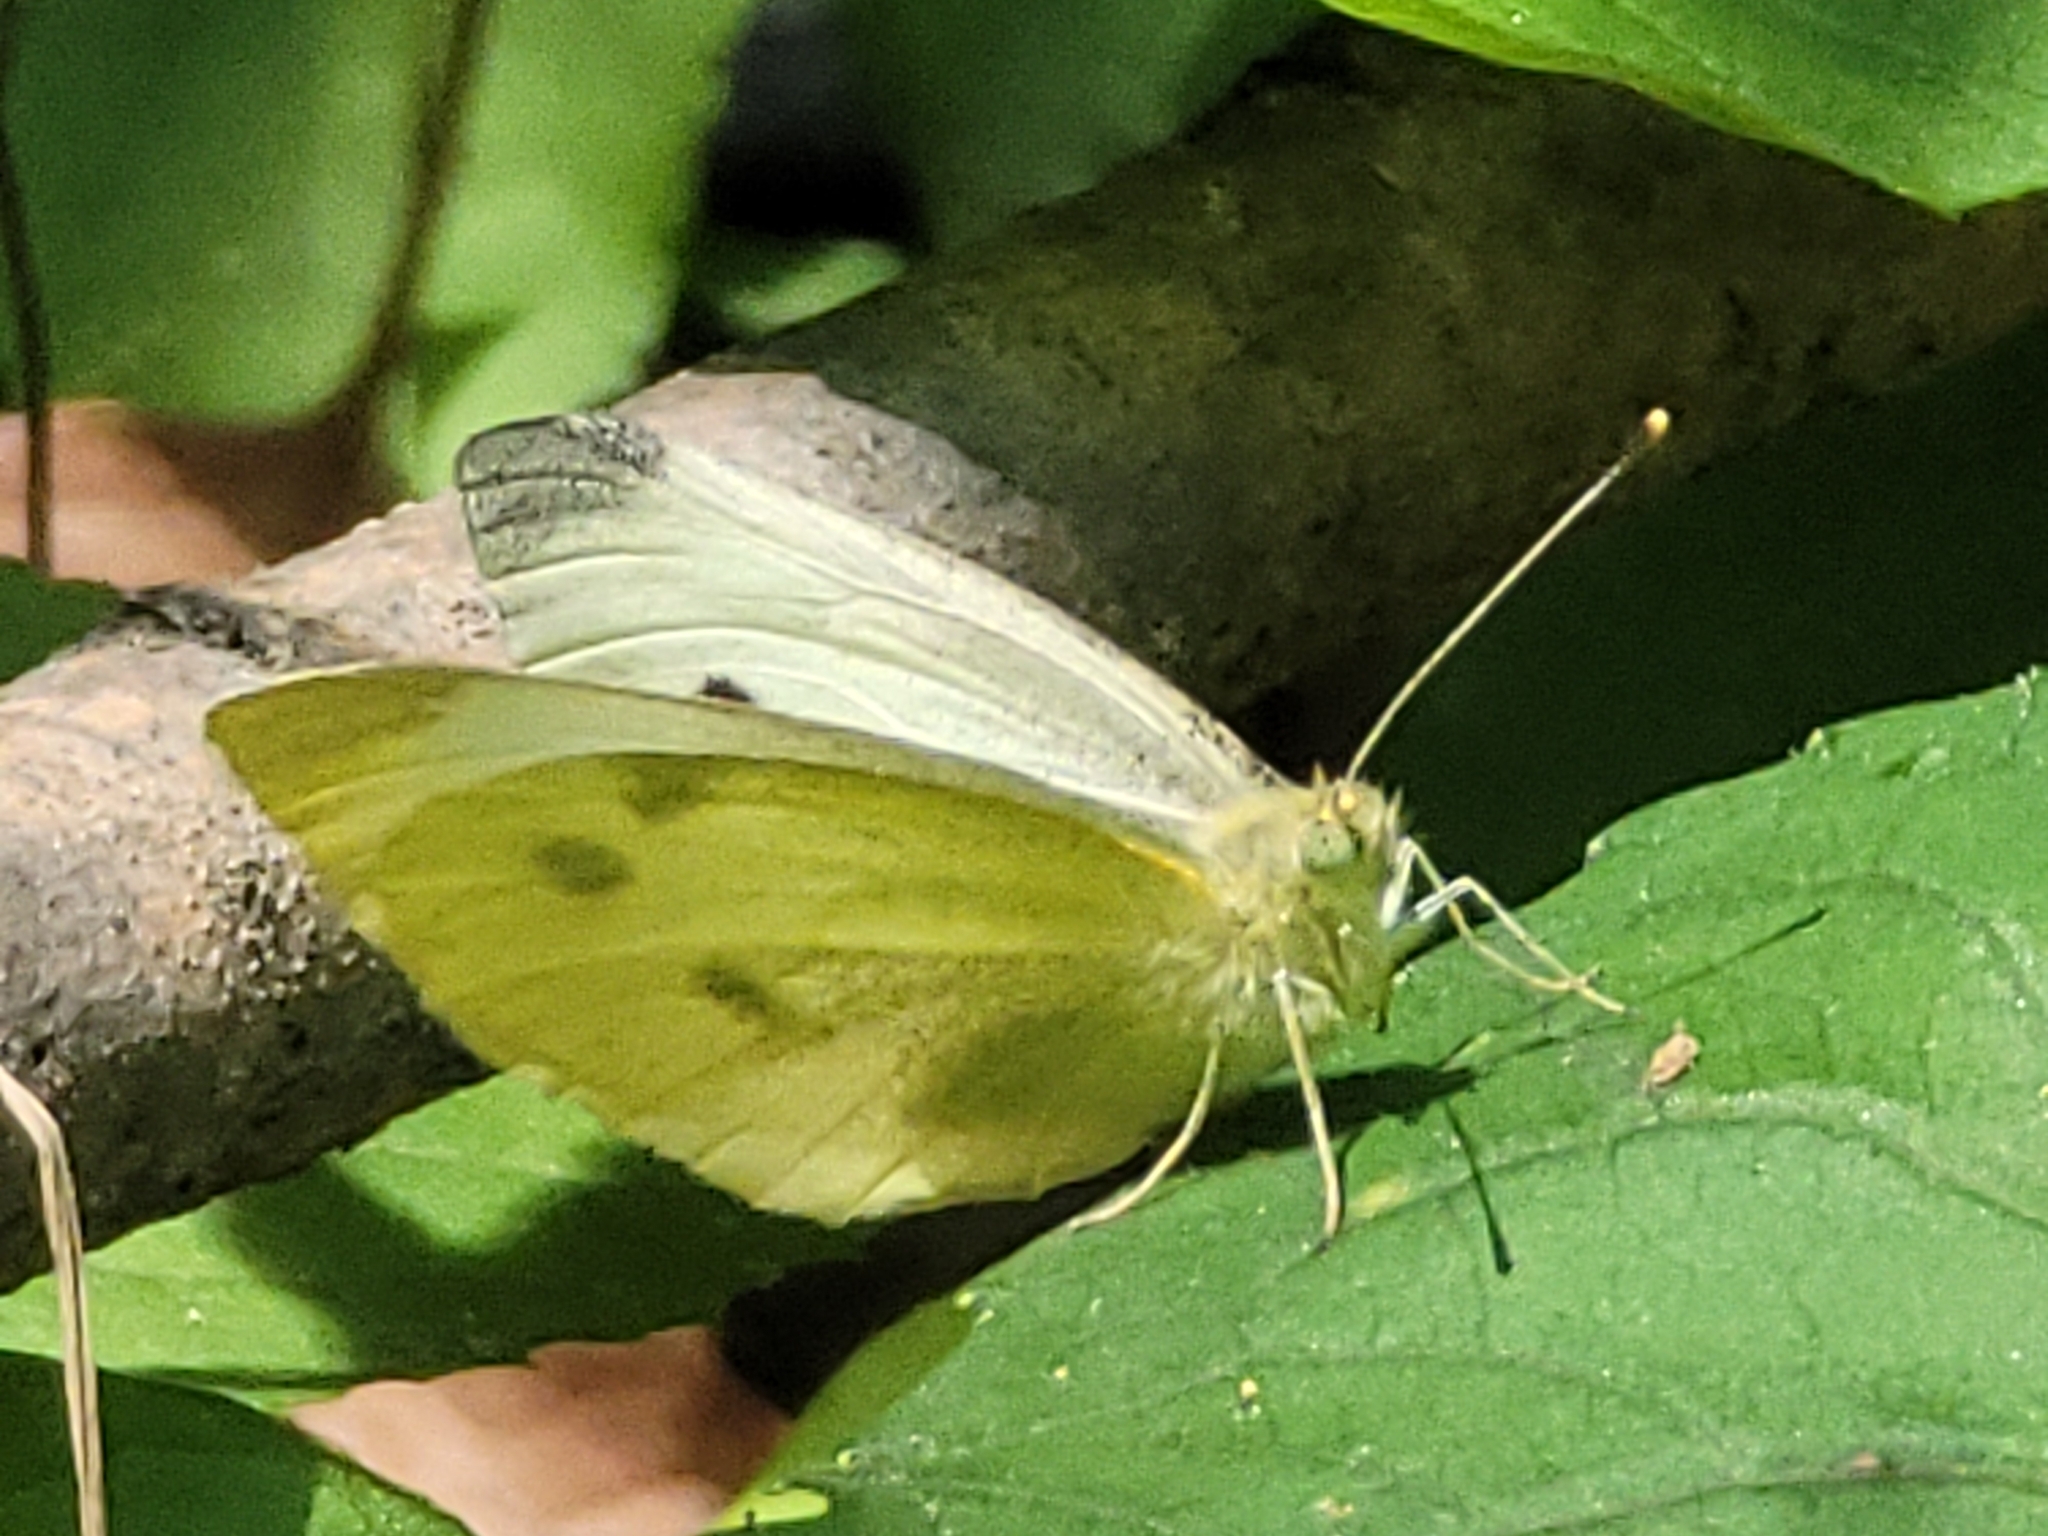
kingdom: Animalia
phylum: Arthropoda
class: Insecta
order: Lepidoptera
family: Pieridae
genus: Pieris
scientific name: Pieris rapae
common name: Small white
